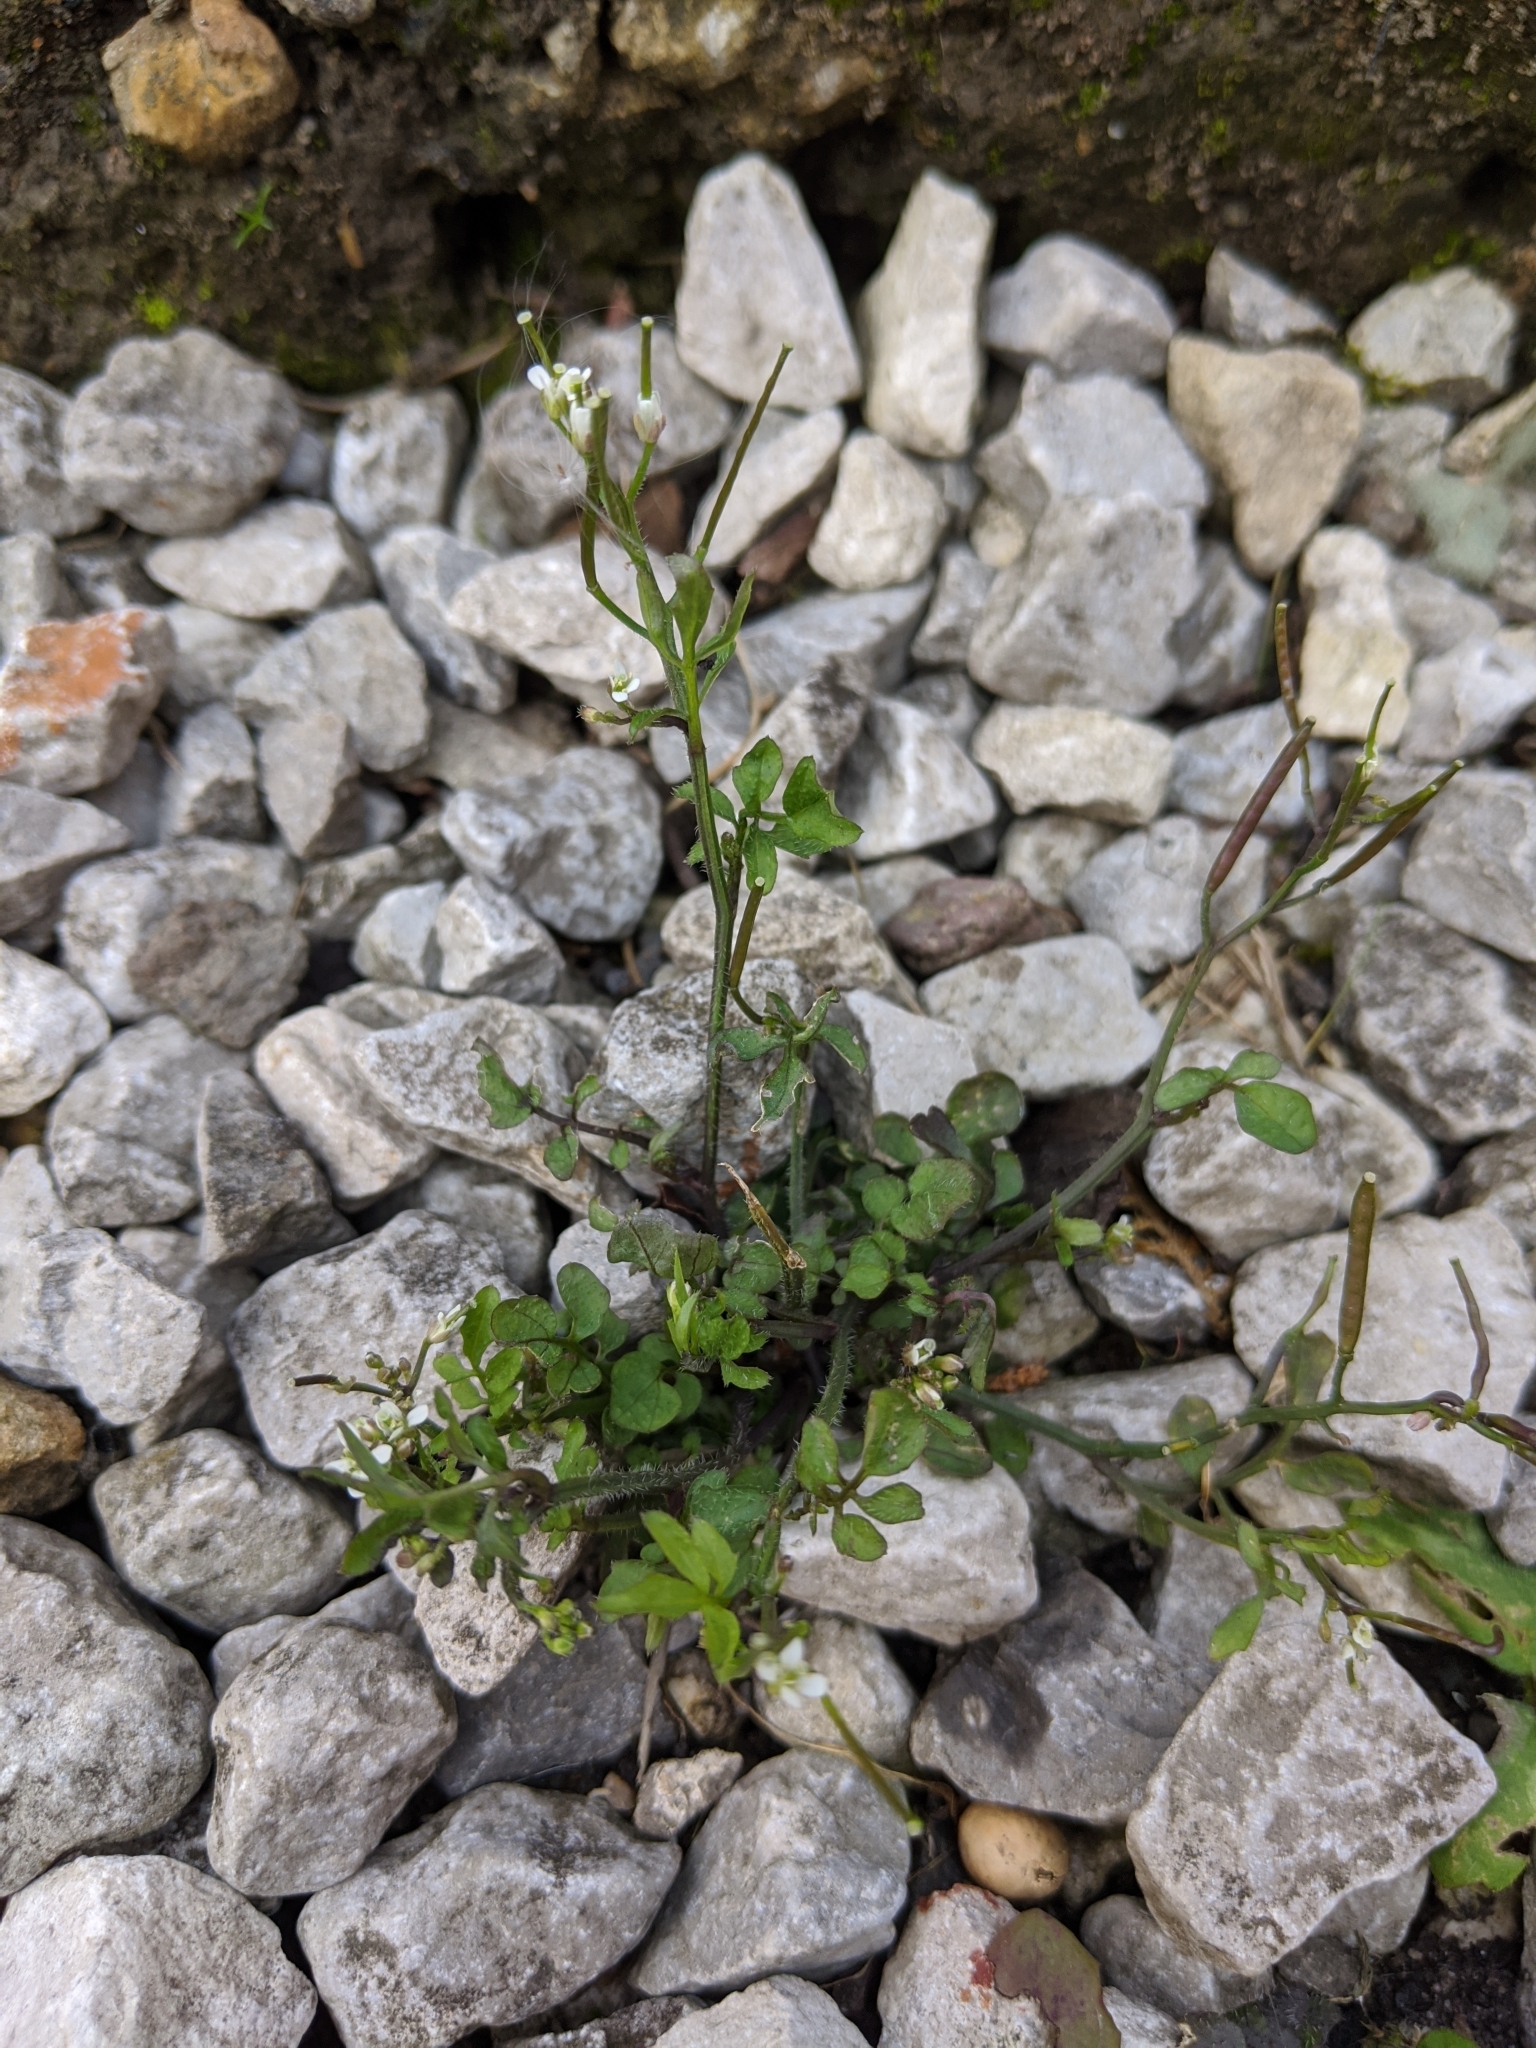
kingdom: Plantae
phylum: Tracheophyta
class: Magnoliopsida
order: Brassicales
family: Brassicaceae
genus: Cardamine
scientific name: Cardamine hirsuta
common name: Hairy bittercress
